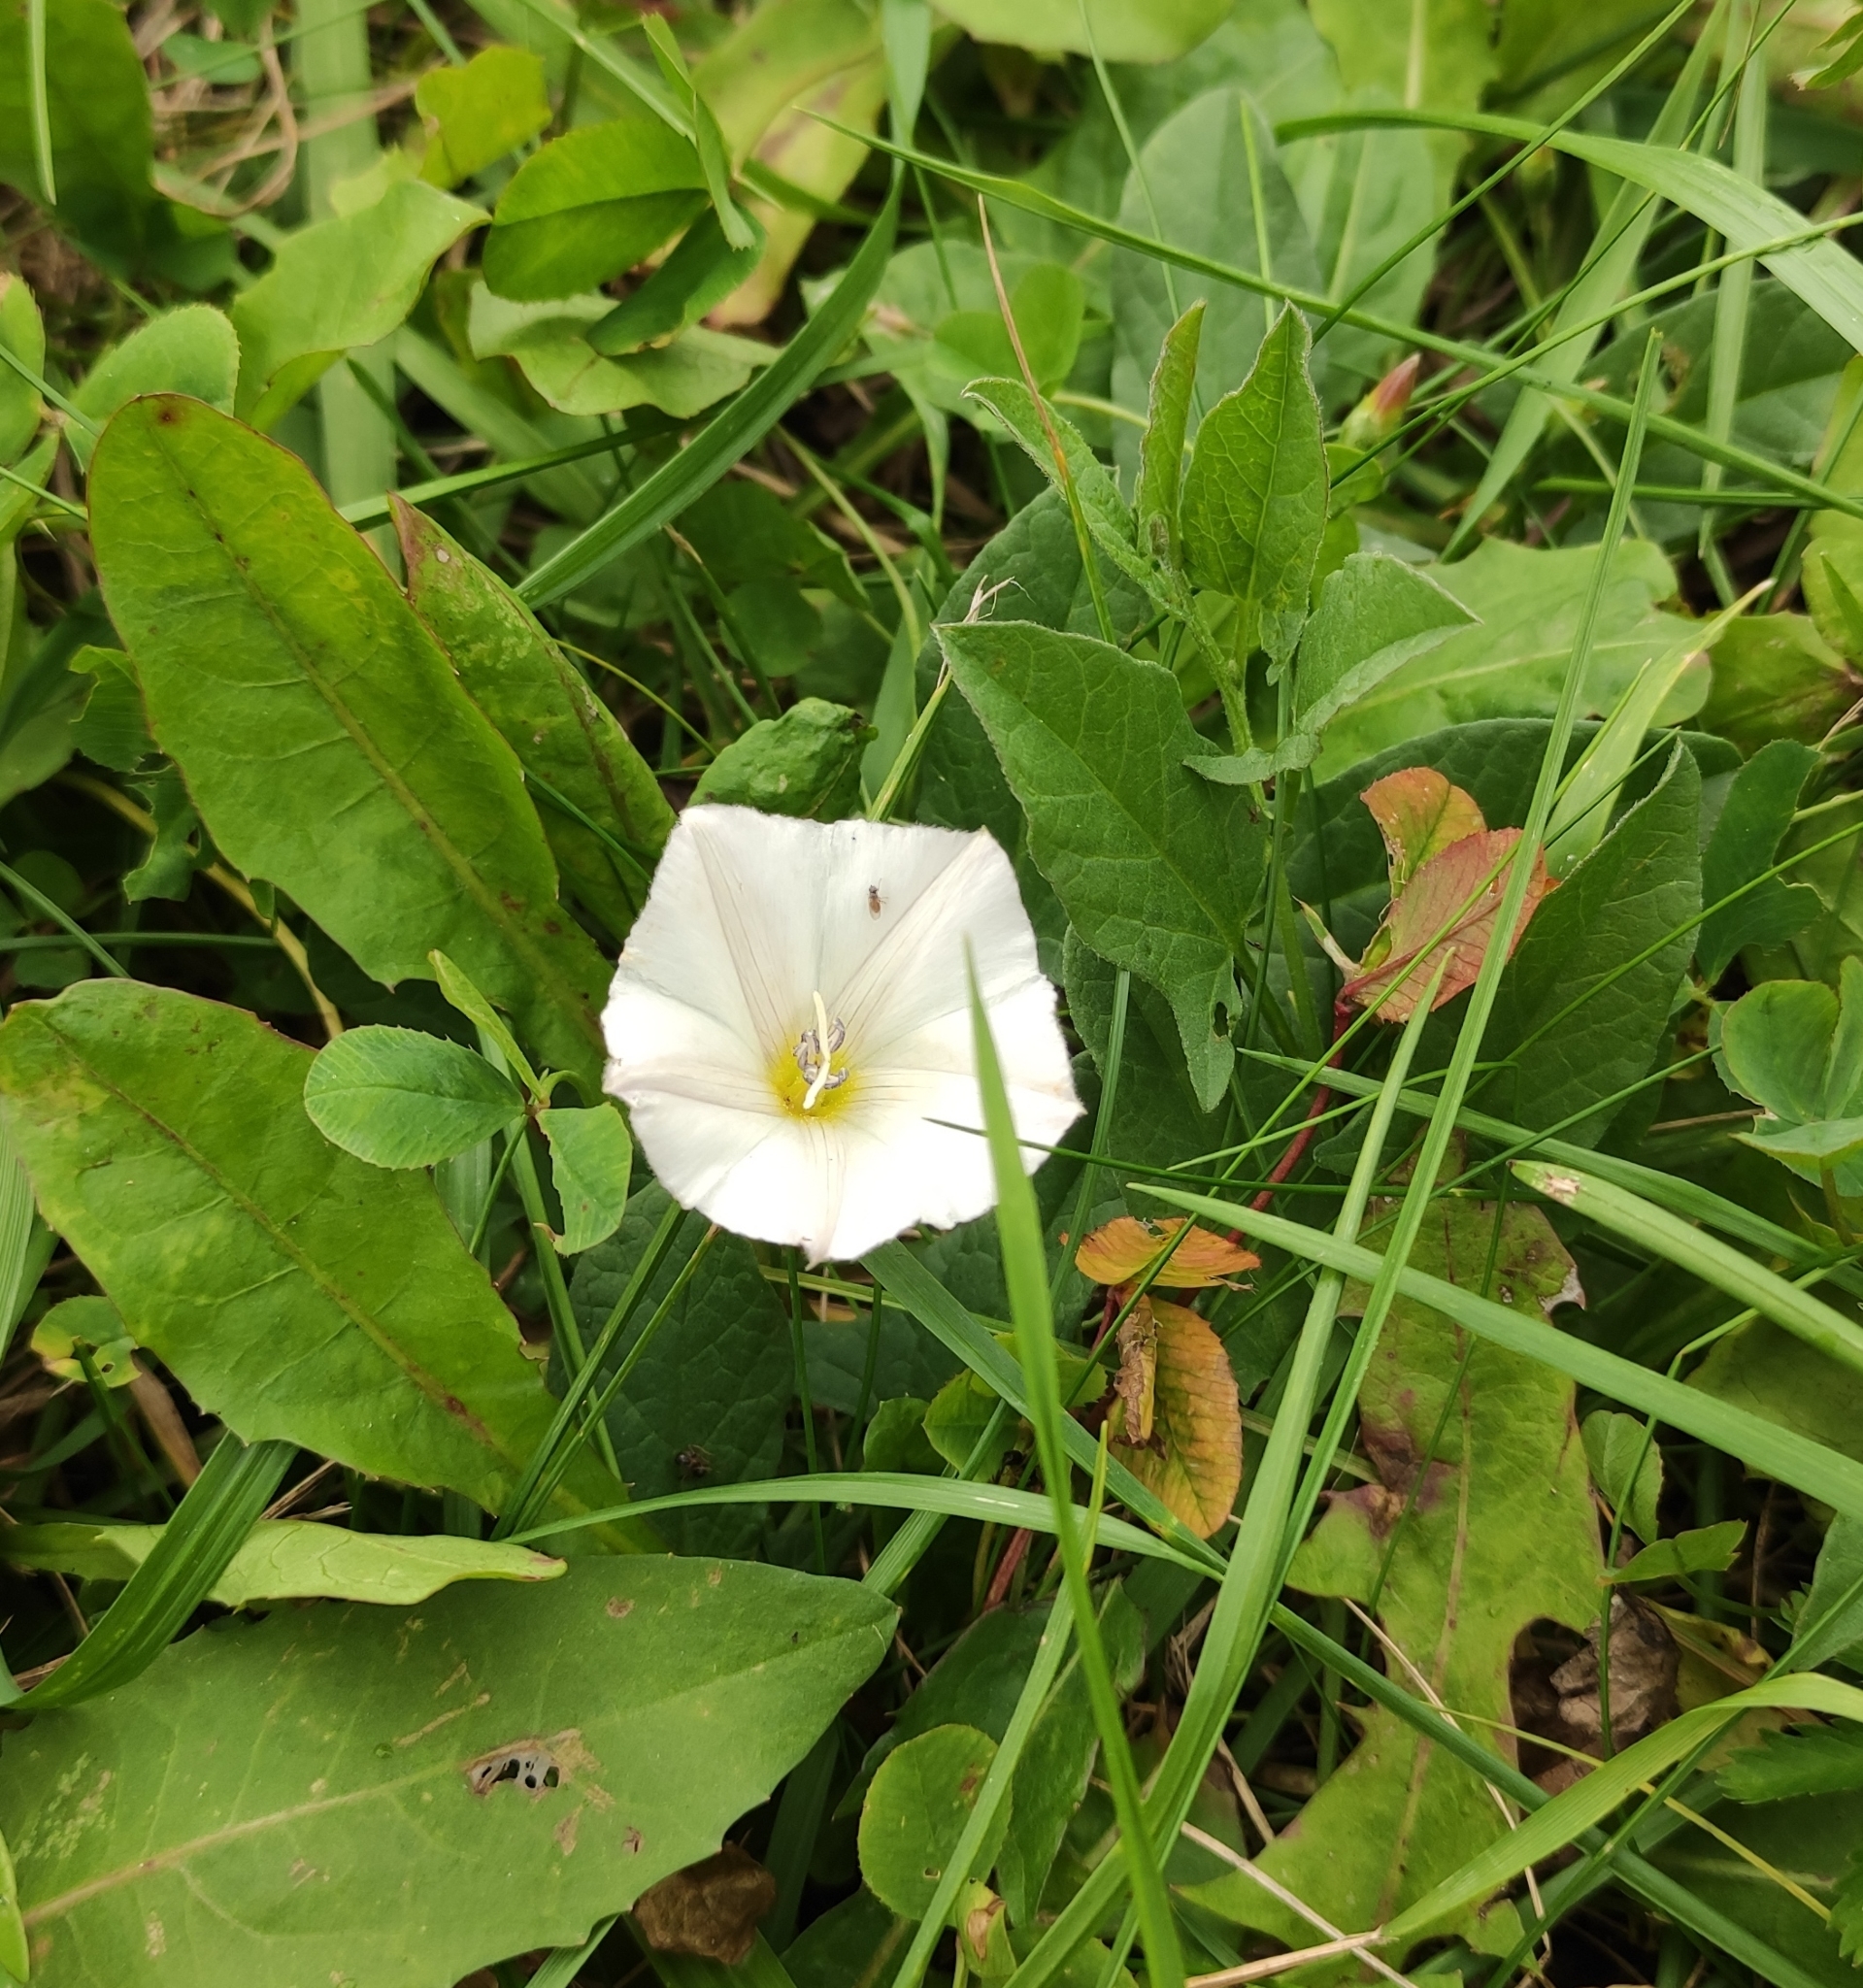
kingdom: Plantae
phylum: Tracheophyta
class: Magnoliopsida
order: Solanales
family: Convolvulaceae
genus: Convolvulus
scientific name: Convolvulus arvensis
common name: Field bindweed
